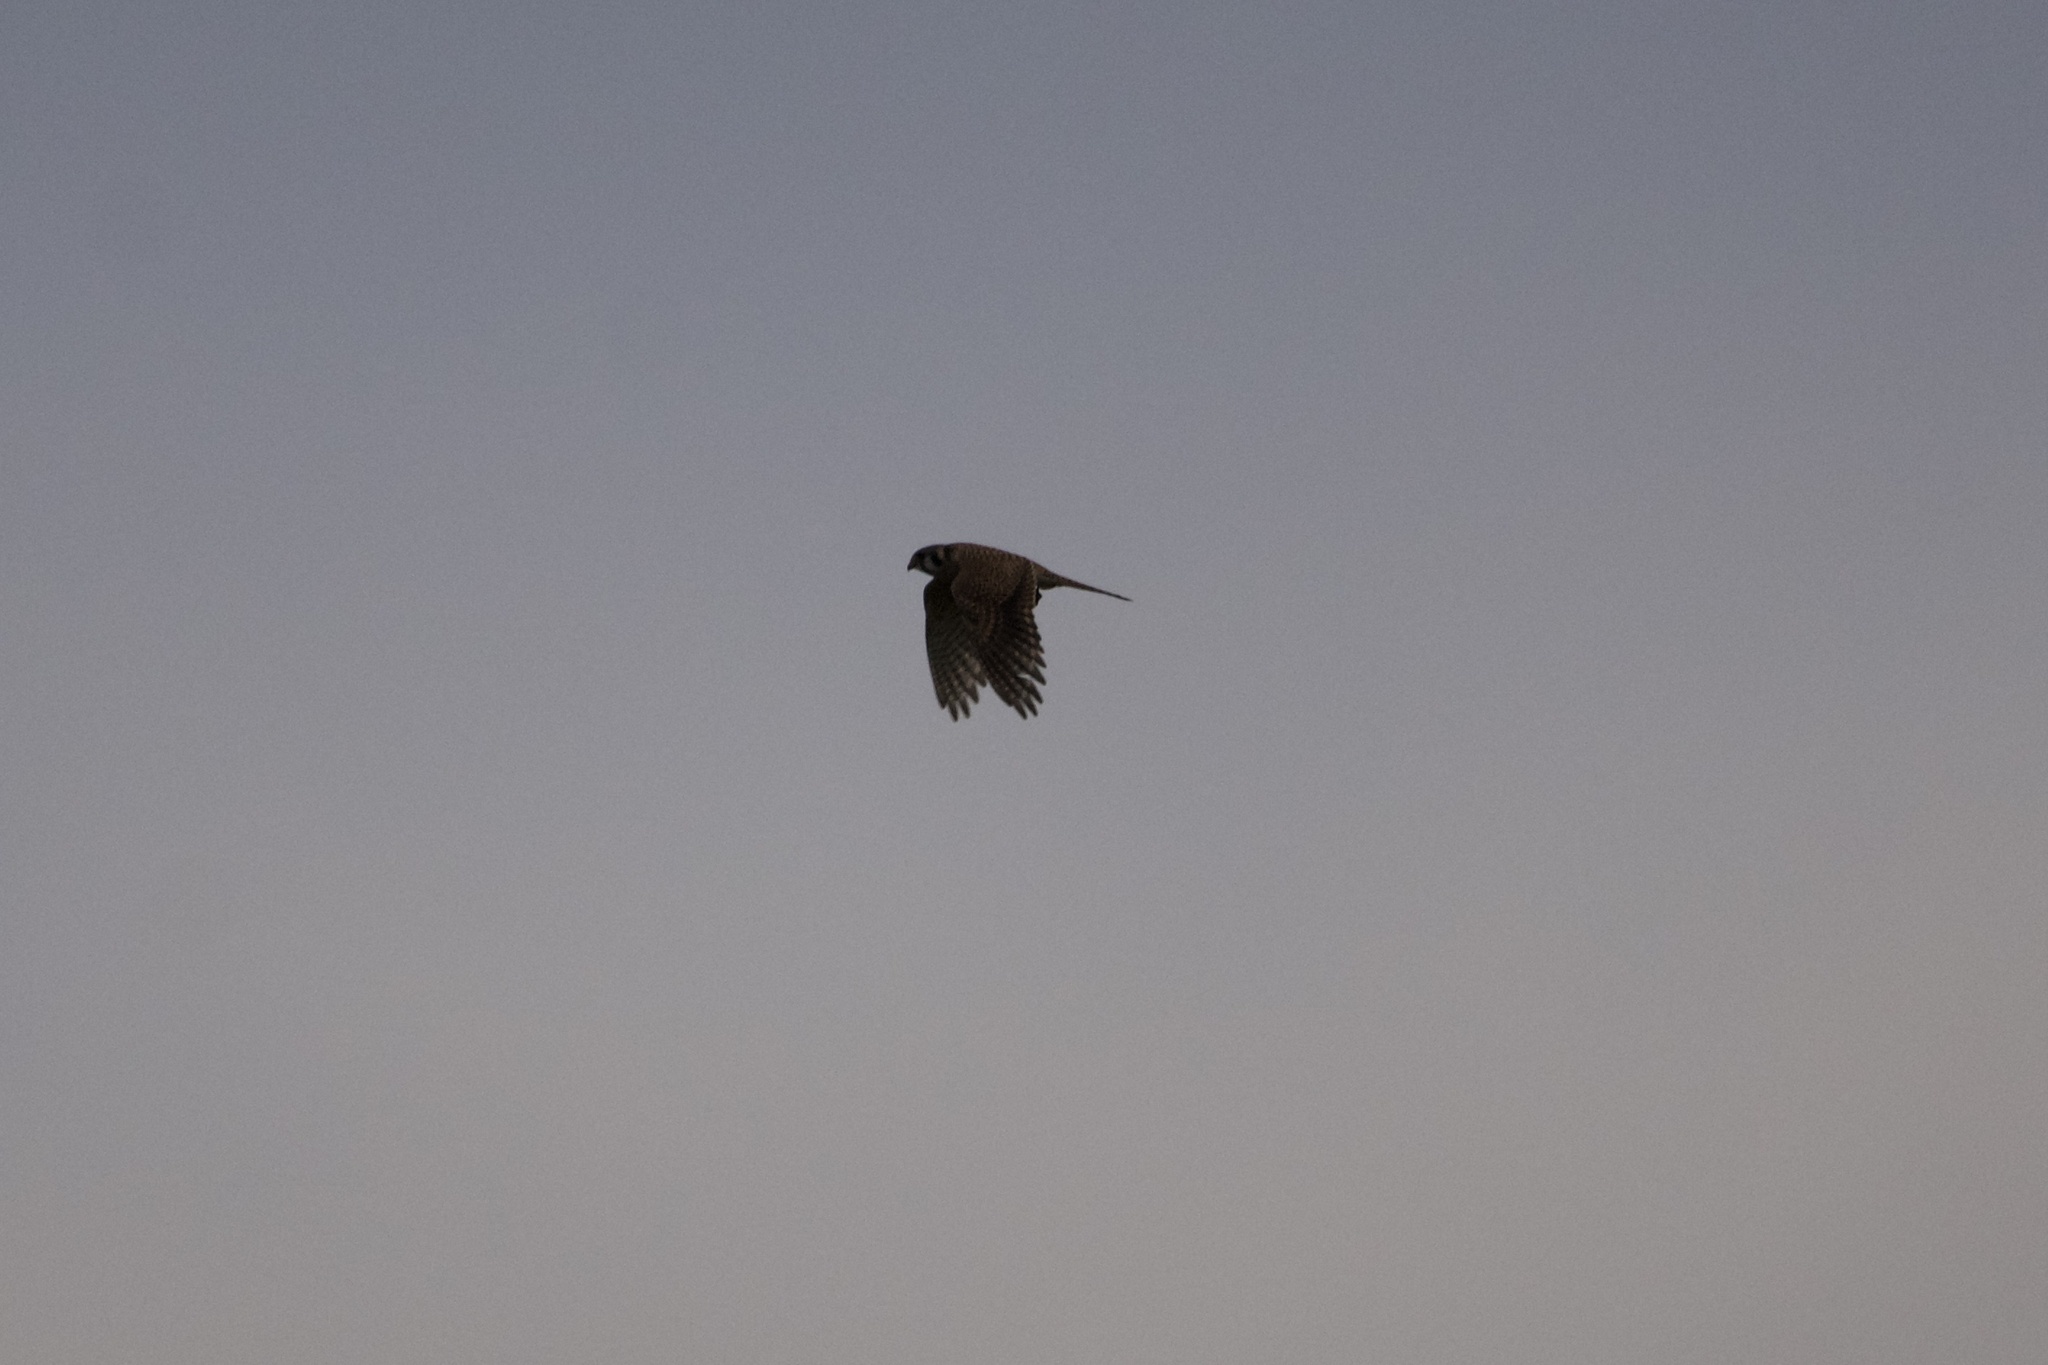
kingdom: Animalia
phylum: Chordata
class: Aves
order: Falconiformes
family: Falconidae
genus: Falco
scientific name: Falco sparverius
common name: American kestrel
